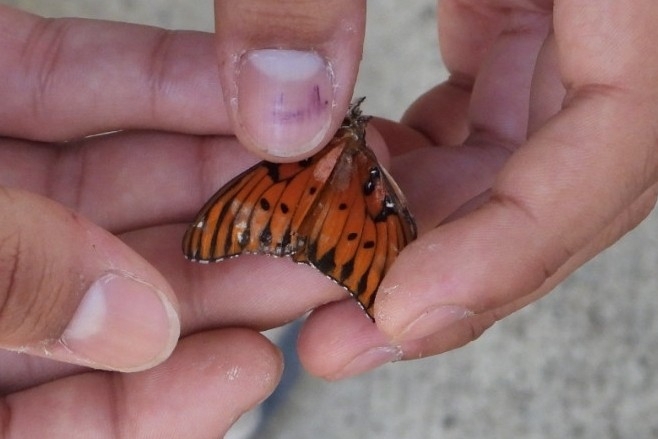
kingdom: Animalia
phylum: Arthropoda
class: Insecta
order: Lepidoptera
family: Nymphalidae
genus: Dione
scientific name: Dione vanillae
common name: Gulf fritillary
